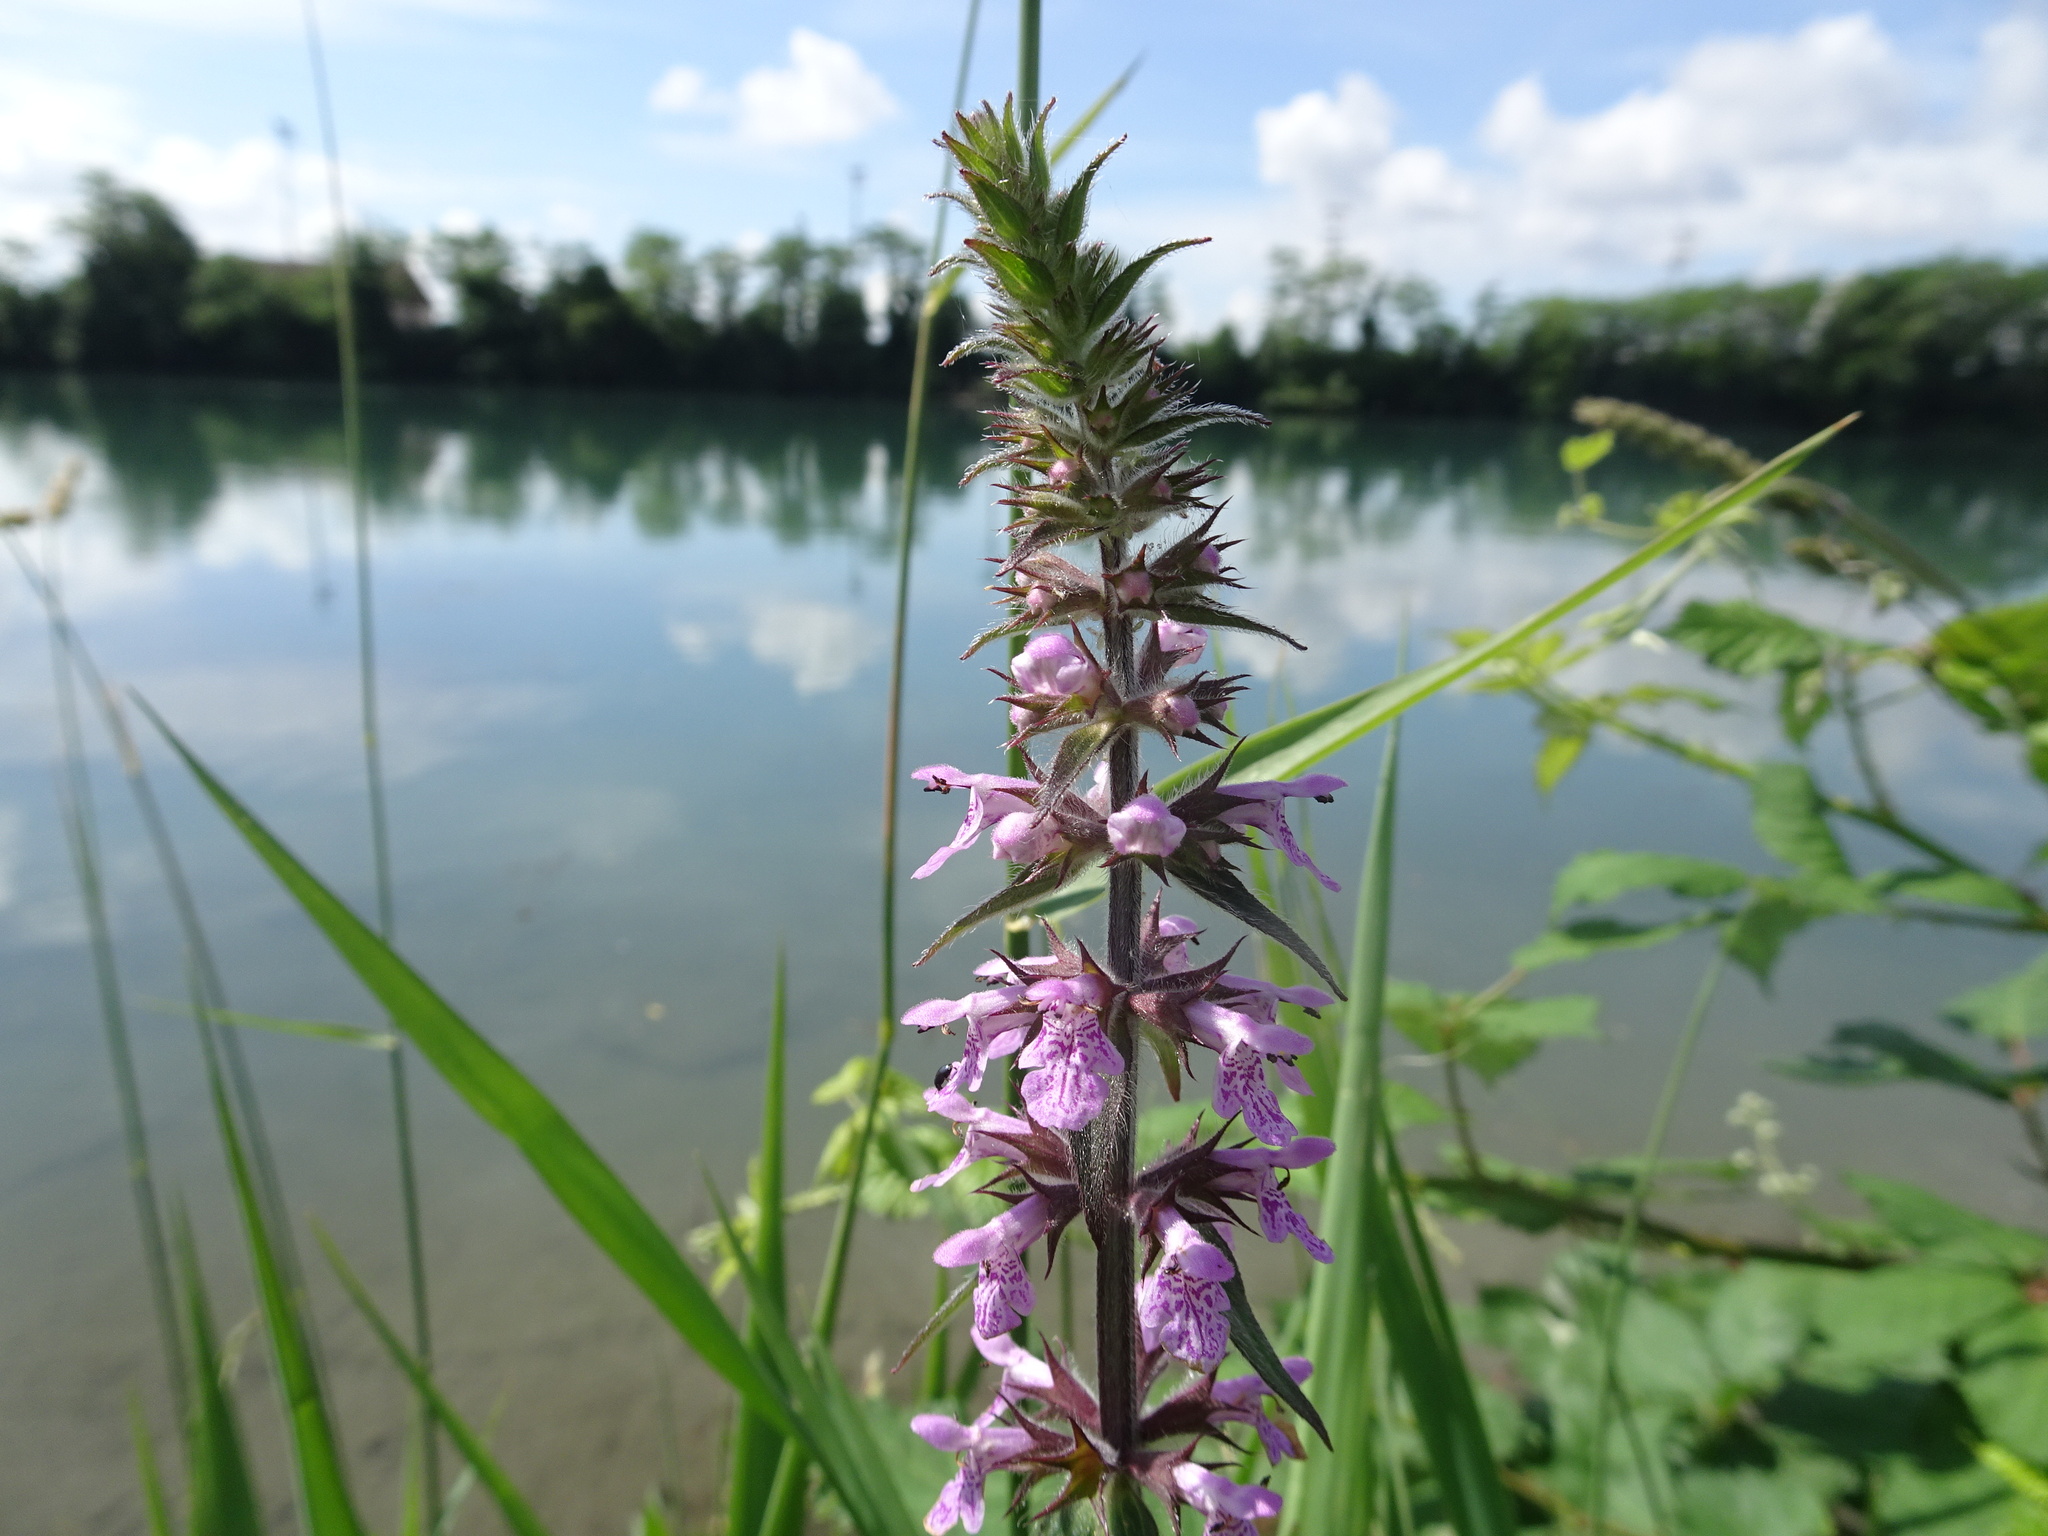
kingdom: Plantae
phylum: Tracheophyta
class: Magnoliopsida
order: Lamiales
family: Lamiaceae
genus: Stachys
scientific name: Stachys palustris
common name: Marsh woundwort
